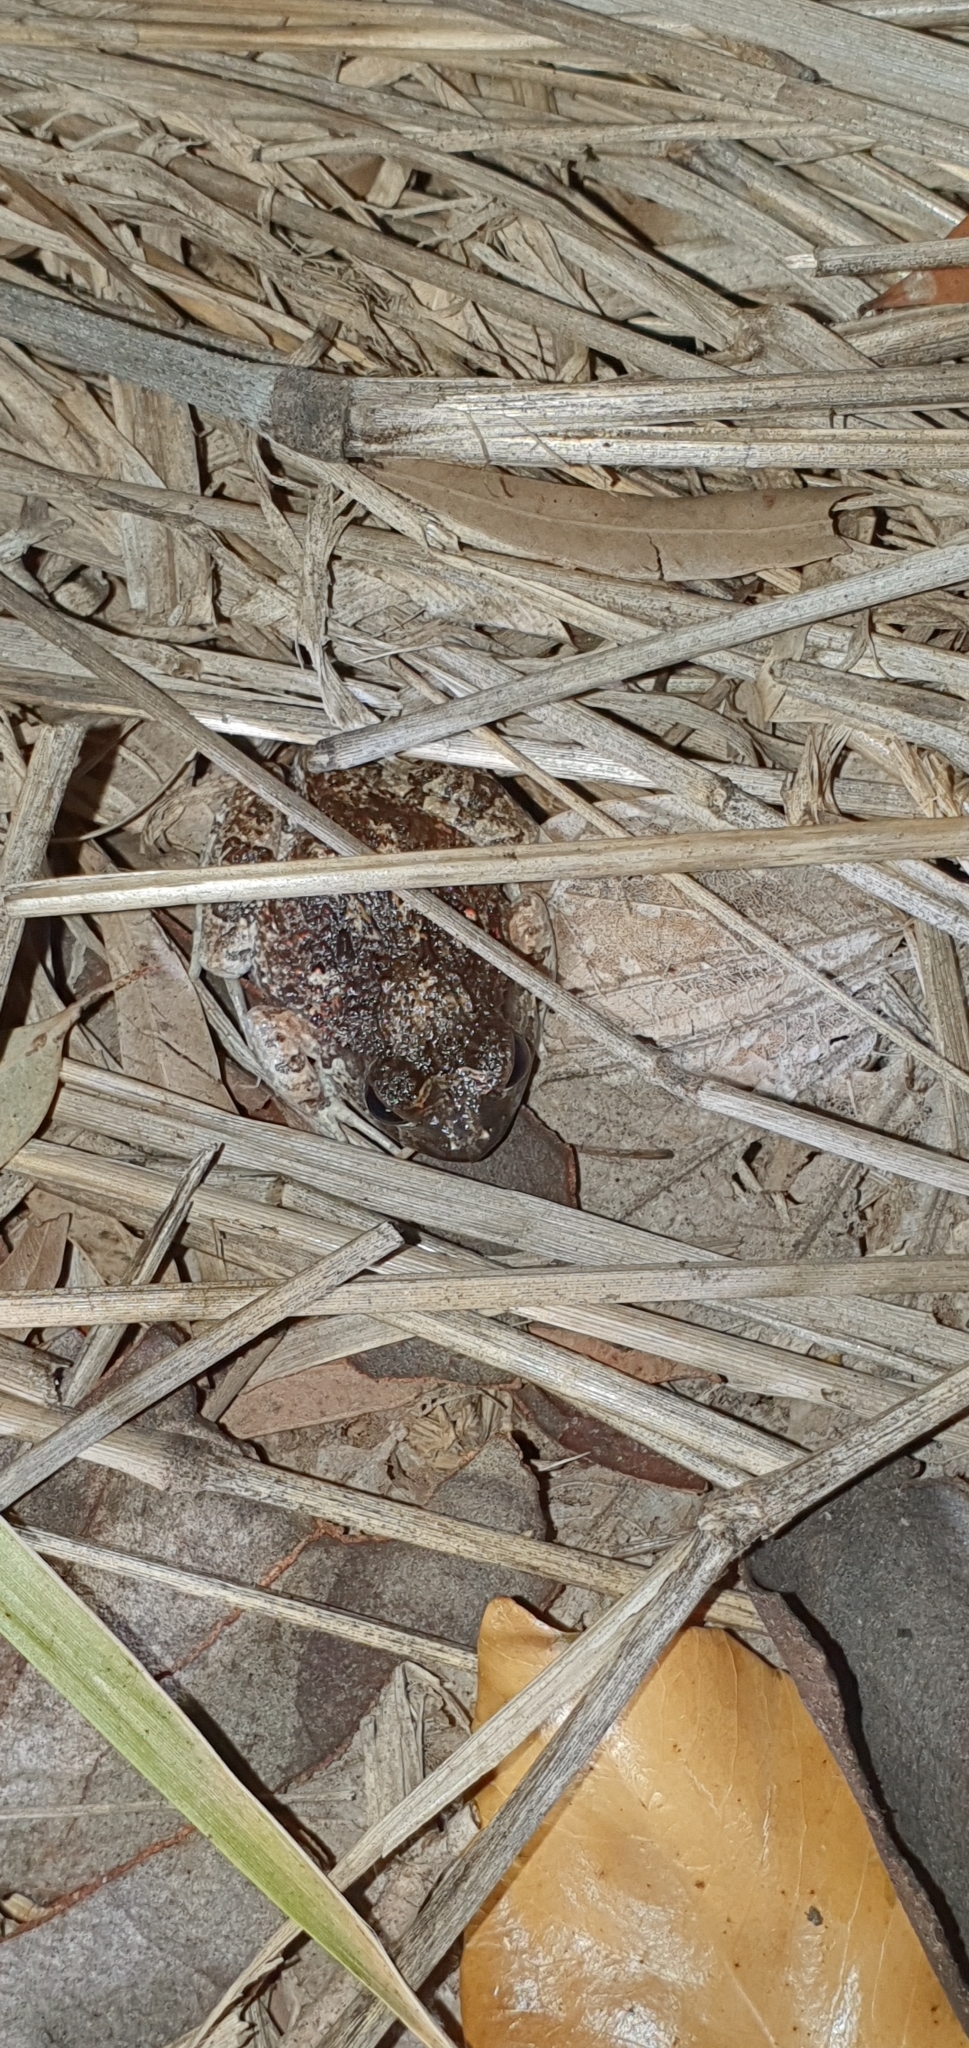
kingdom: Animalia
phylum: Chordata
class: Amphibia
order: Anura
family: Limnodynastidae
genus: Platyplectrum
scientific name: Platyplectrum ornatum
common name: Ornate burrowing frog
